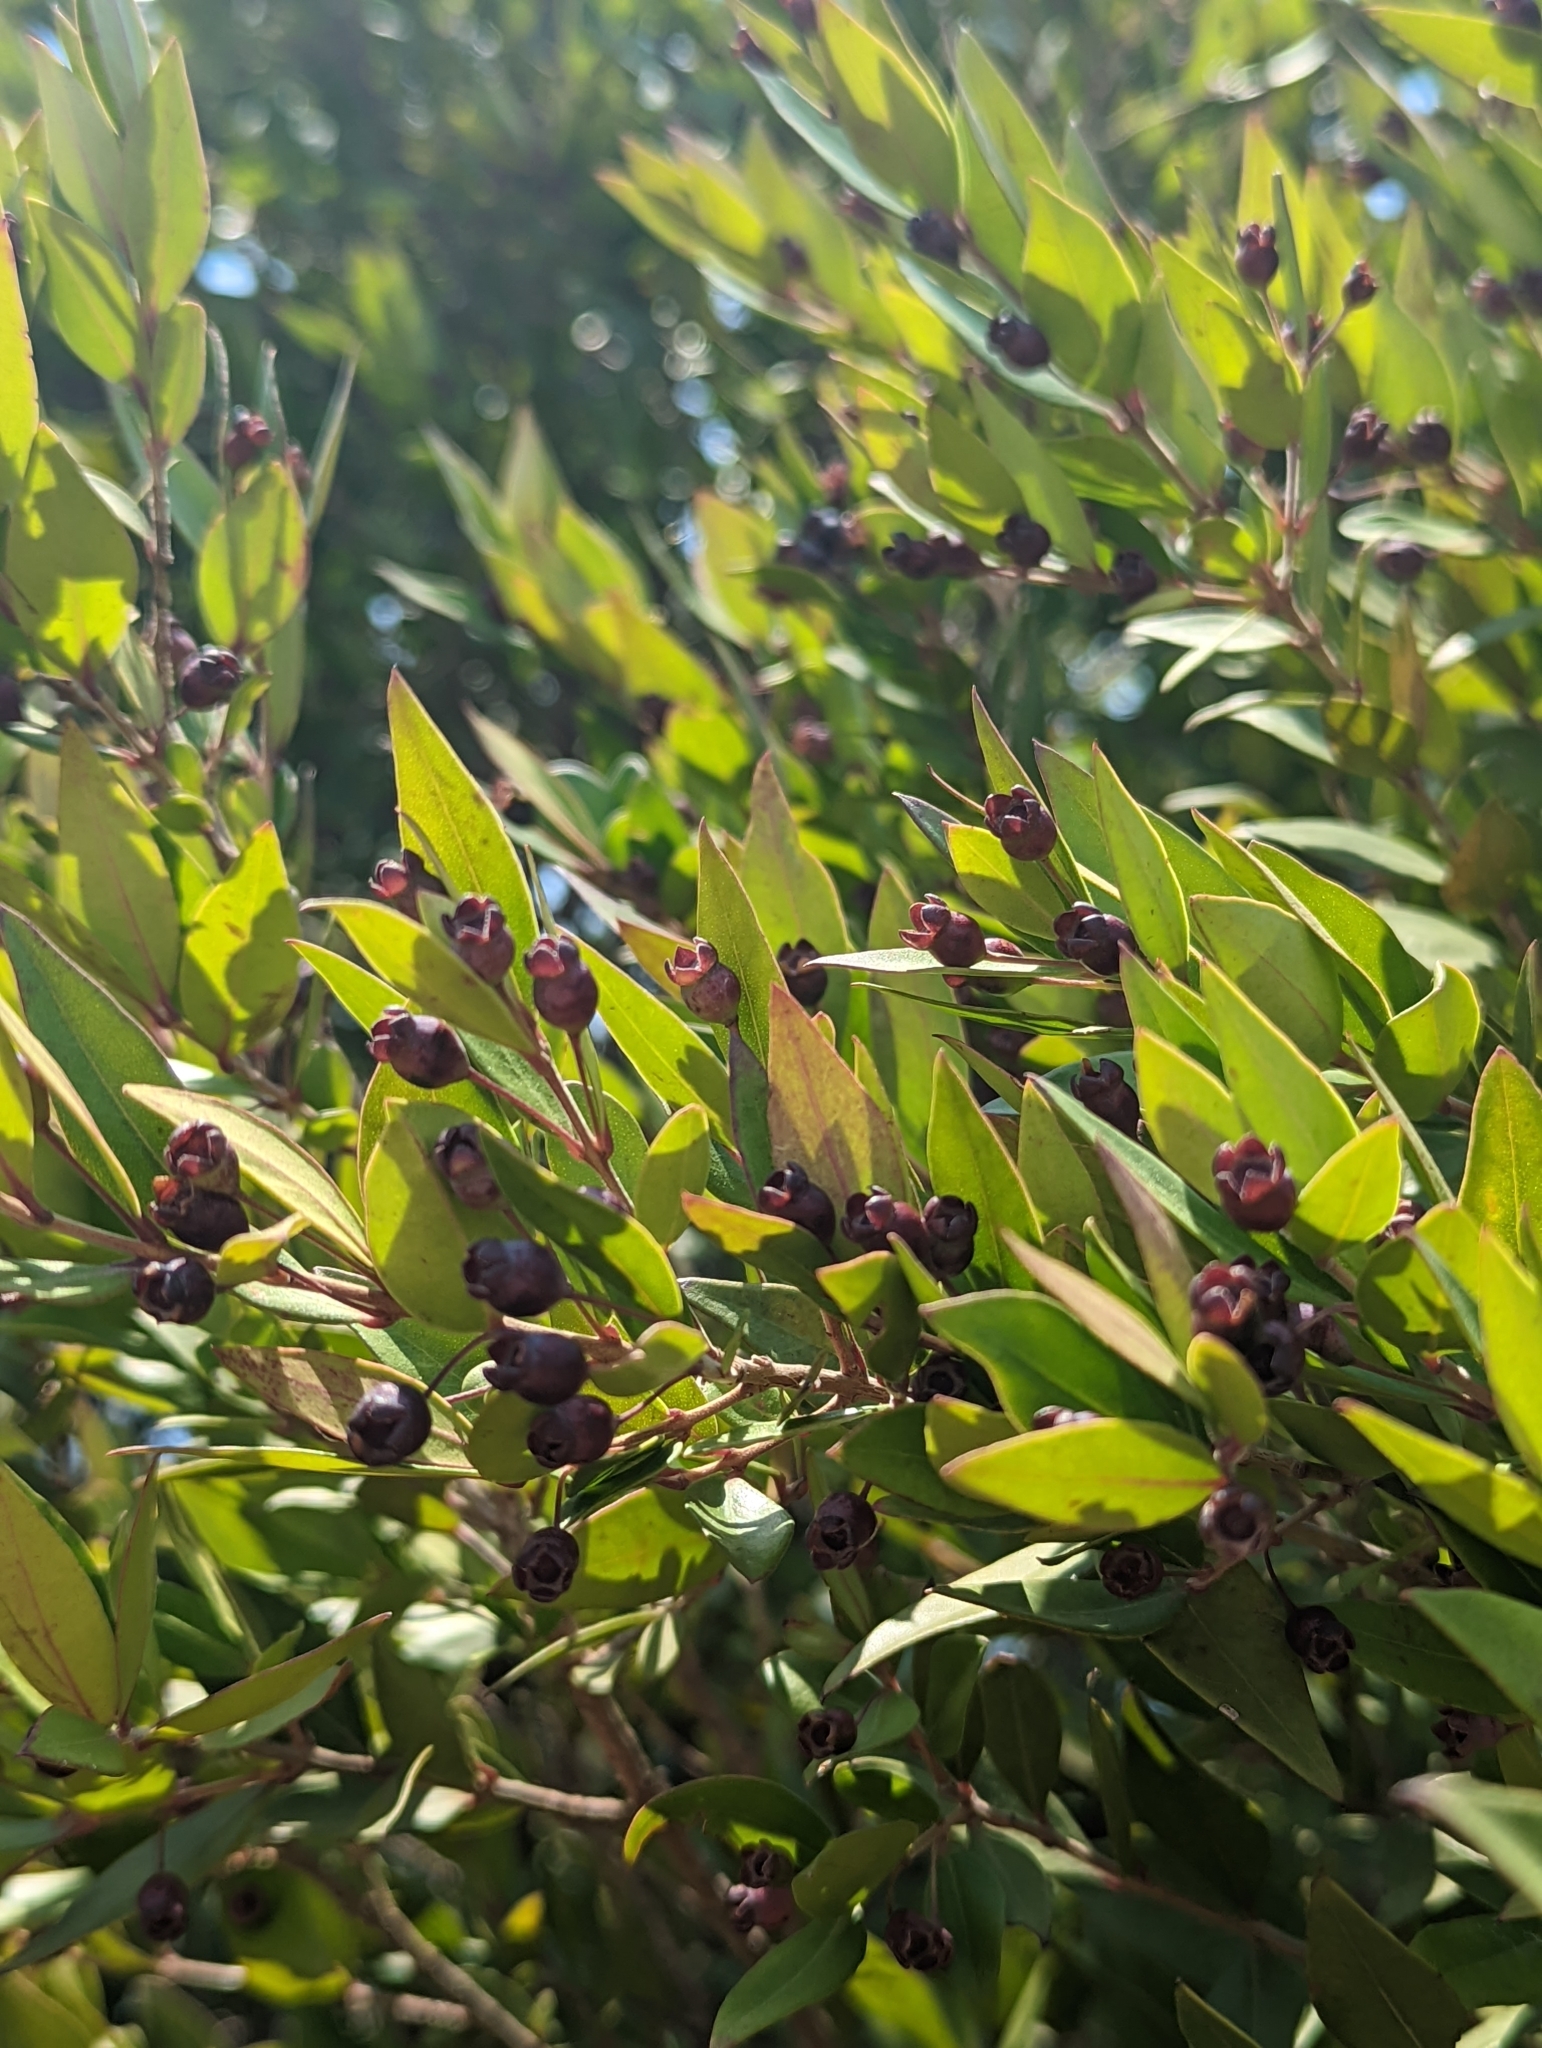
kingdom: Plantae
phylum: Tracheophyta
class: Magnoliopsida
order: Myrtales
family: Myrtaceae
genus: Myrtus
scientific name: Myrtus communis
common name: Myrtle
